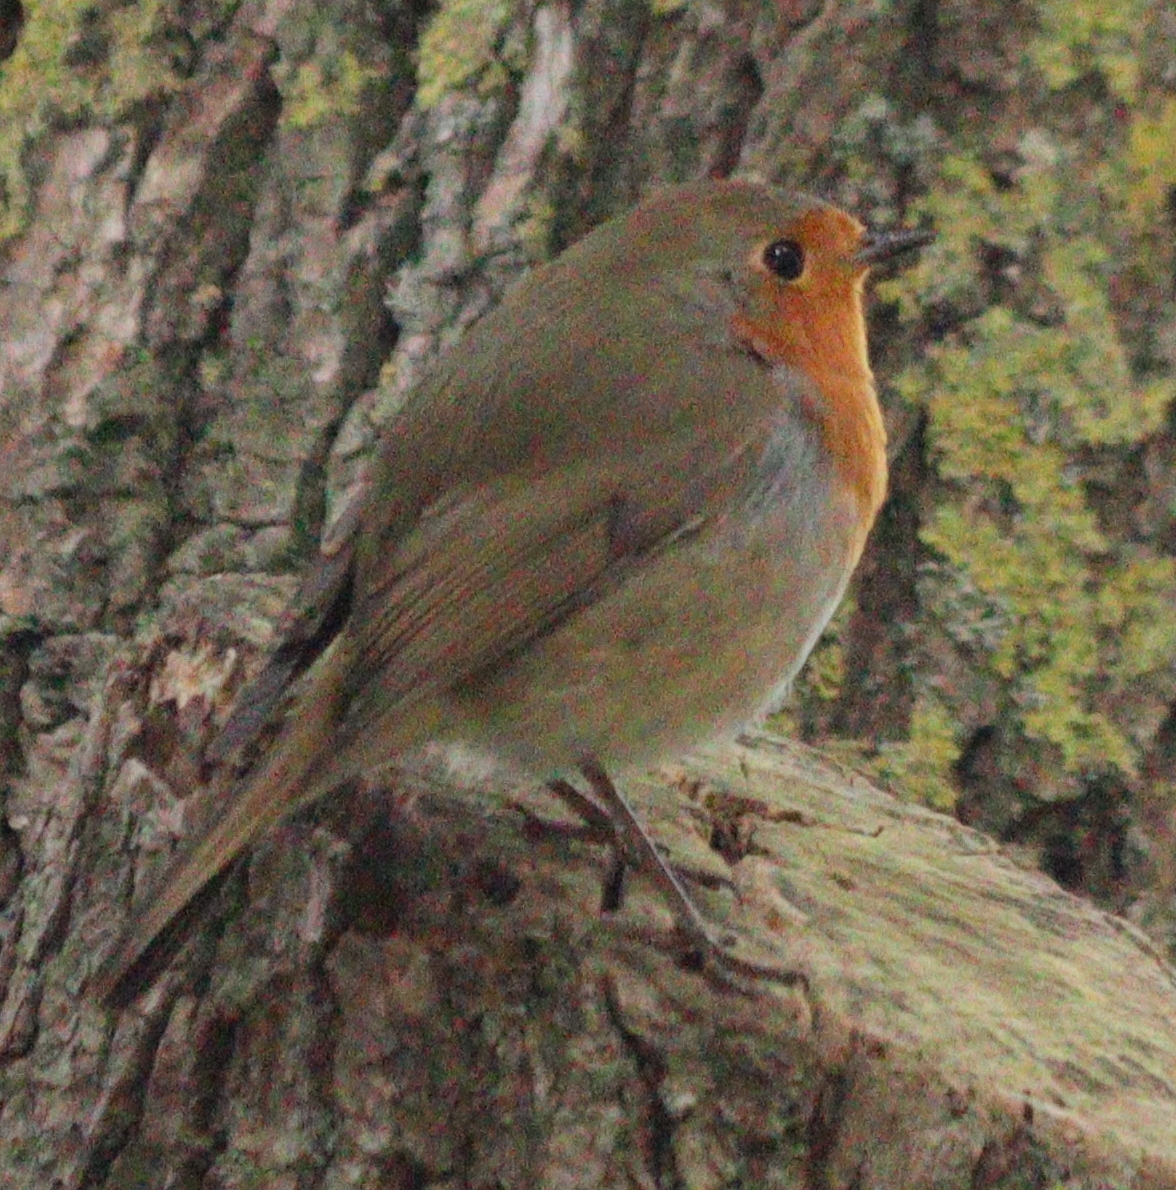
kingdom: Animalia
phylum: Chordata
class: Aves
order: Passeriformes
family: Muscicapidae
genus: Erithacus
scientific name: Erithacus rubecula
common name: European robin
